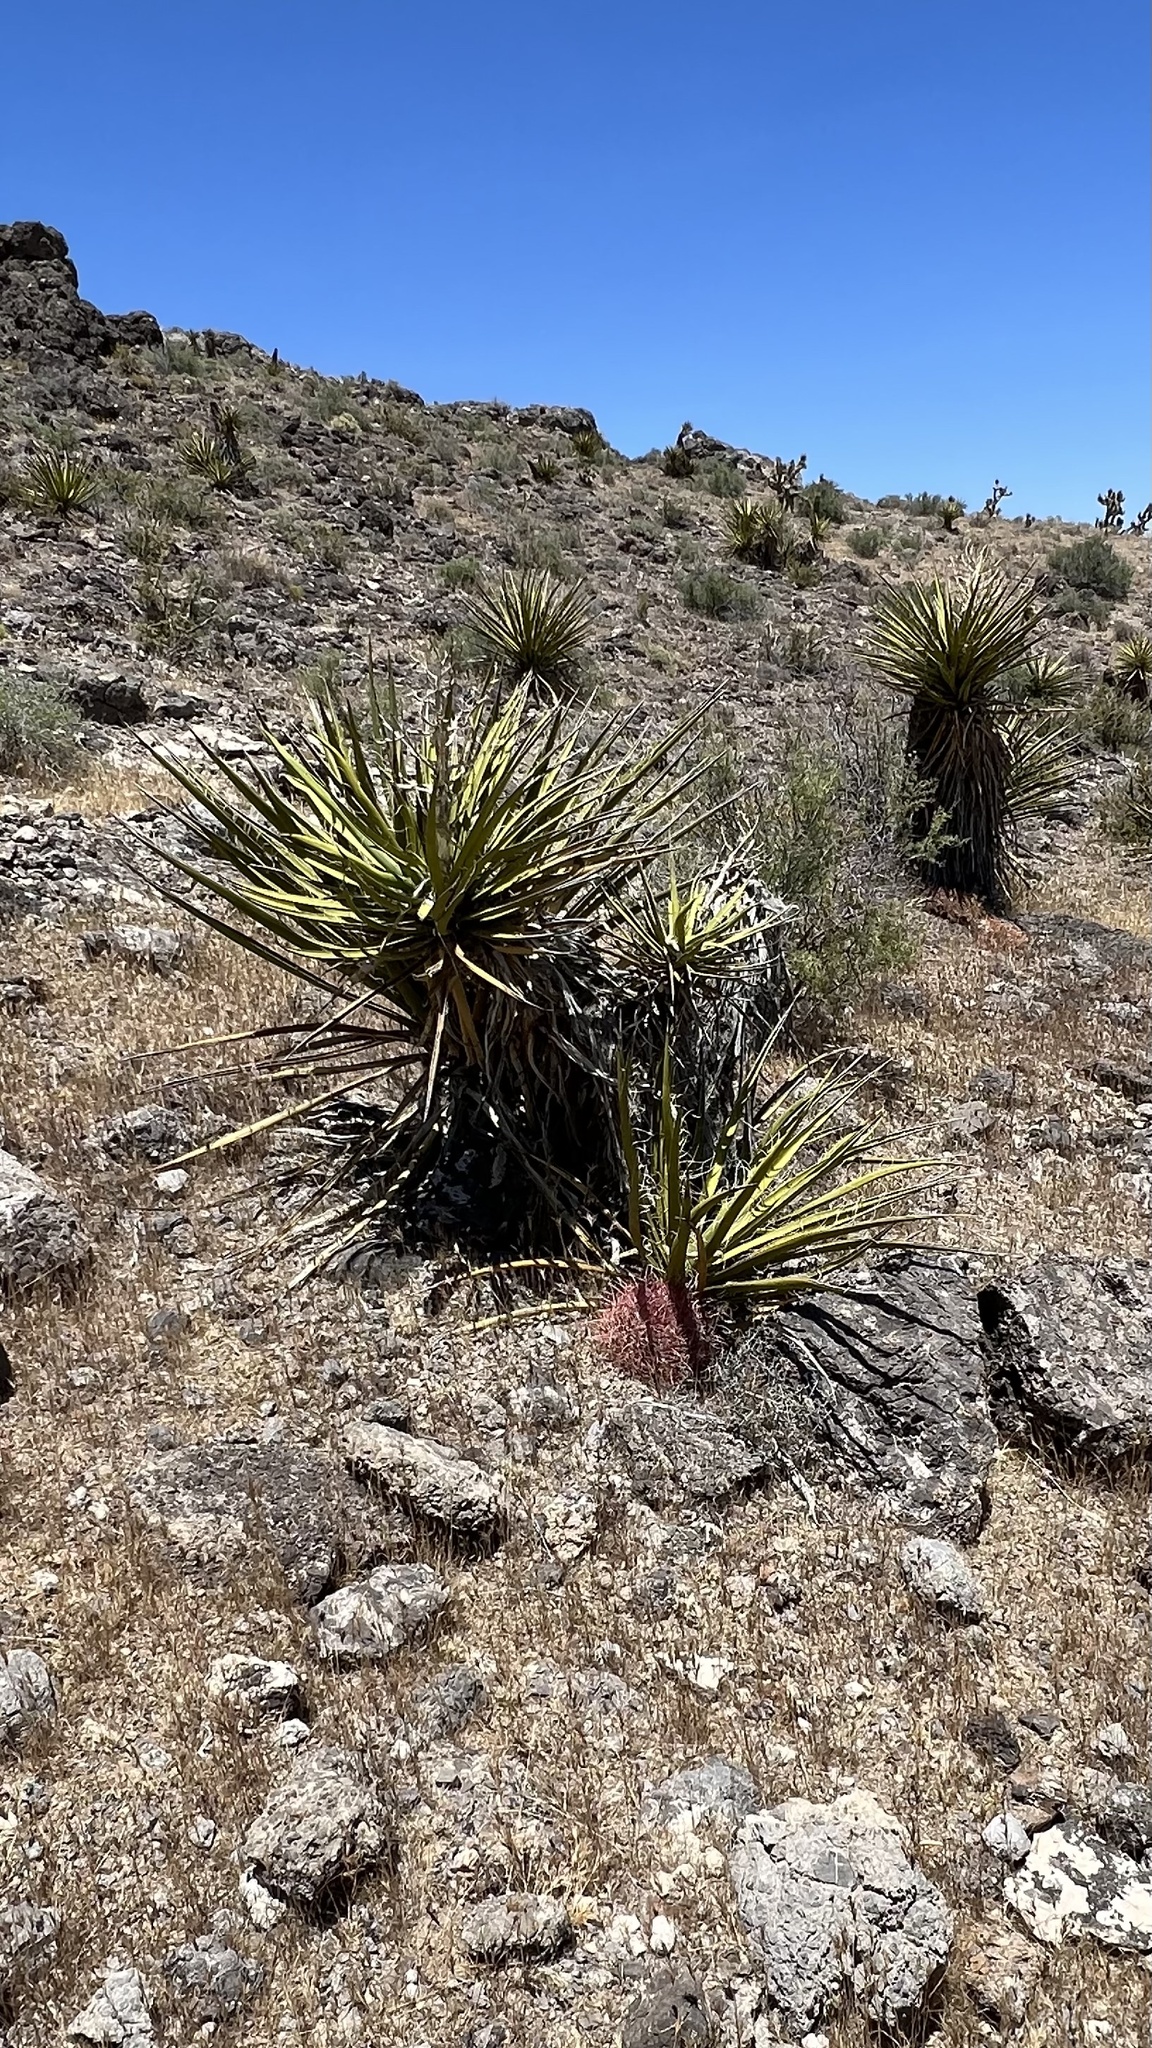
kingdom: Plantae
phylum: Tracheophyta
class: Liliopsida
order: Asparagales
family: Asparagaceae
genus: Yucca
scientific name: Yucca schidigera
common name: Mojave yucca
